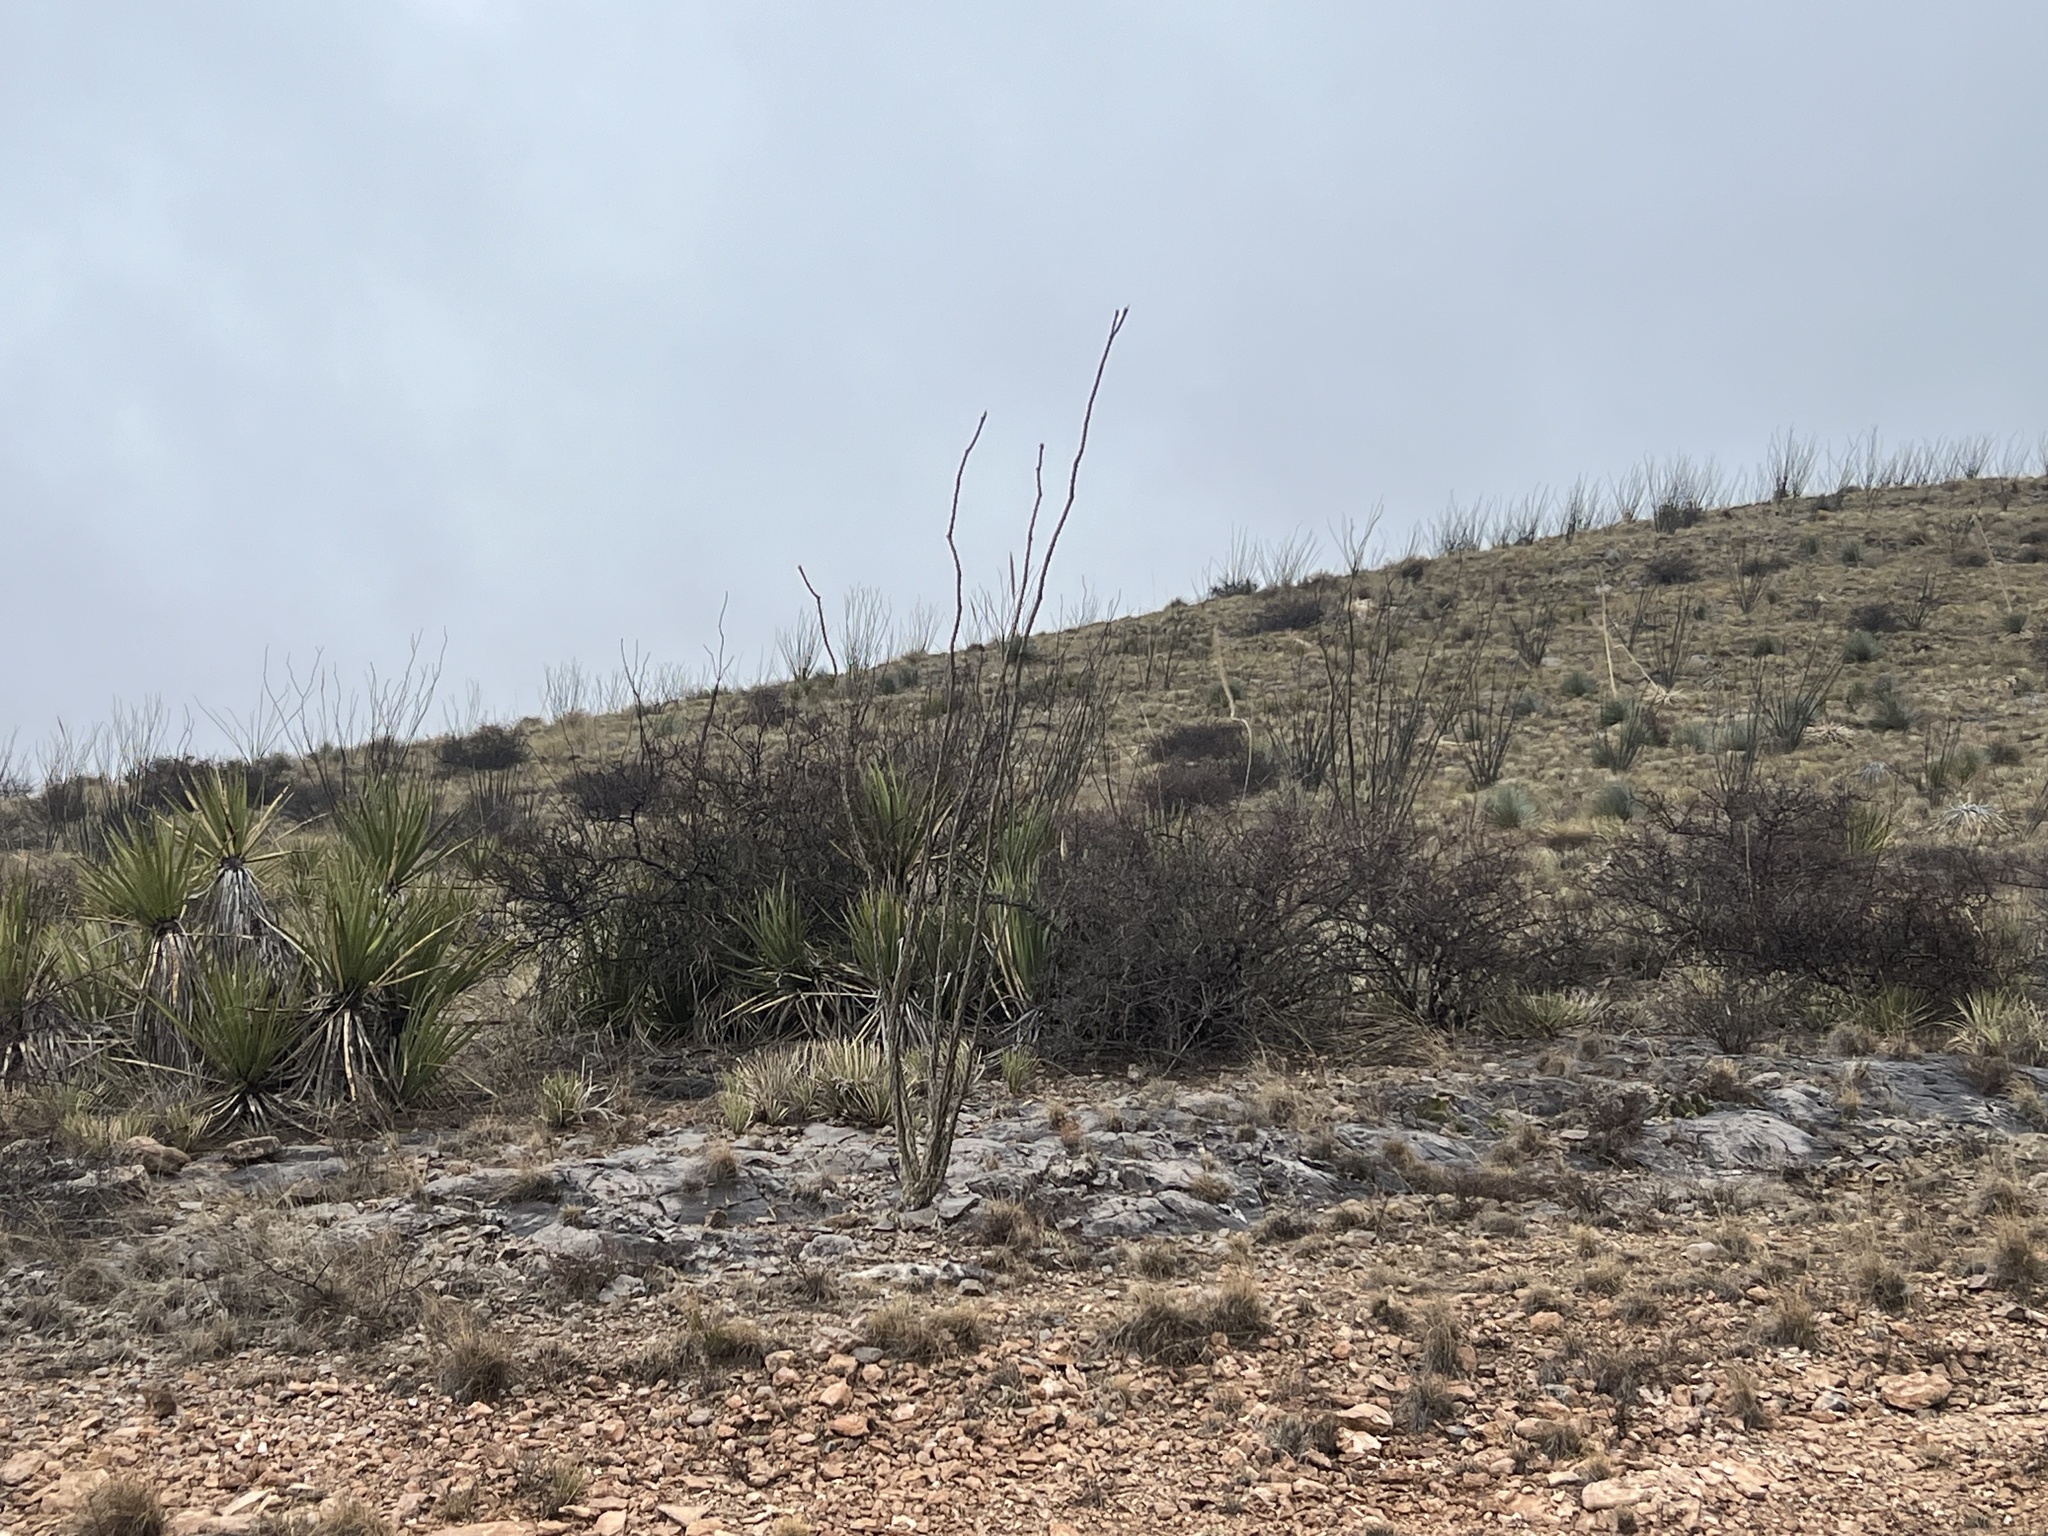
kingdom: Plantae
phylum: Tracheophyta
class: Magnoliopsida
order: Ericales
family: Fouquieriaceae
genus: Fouquieria
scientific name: Fouquieria splendens
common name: Vine-cactus
